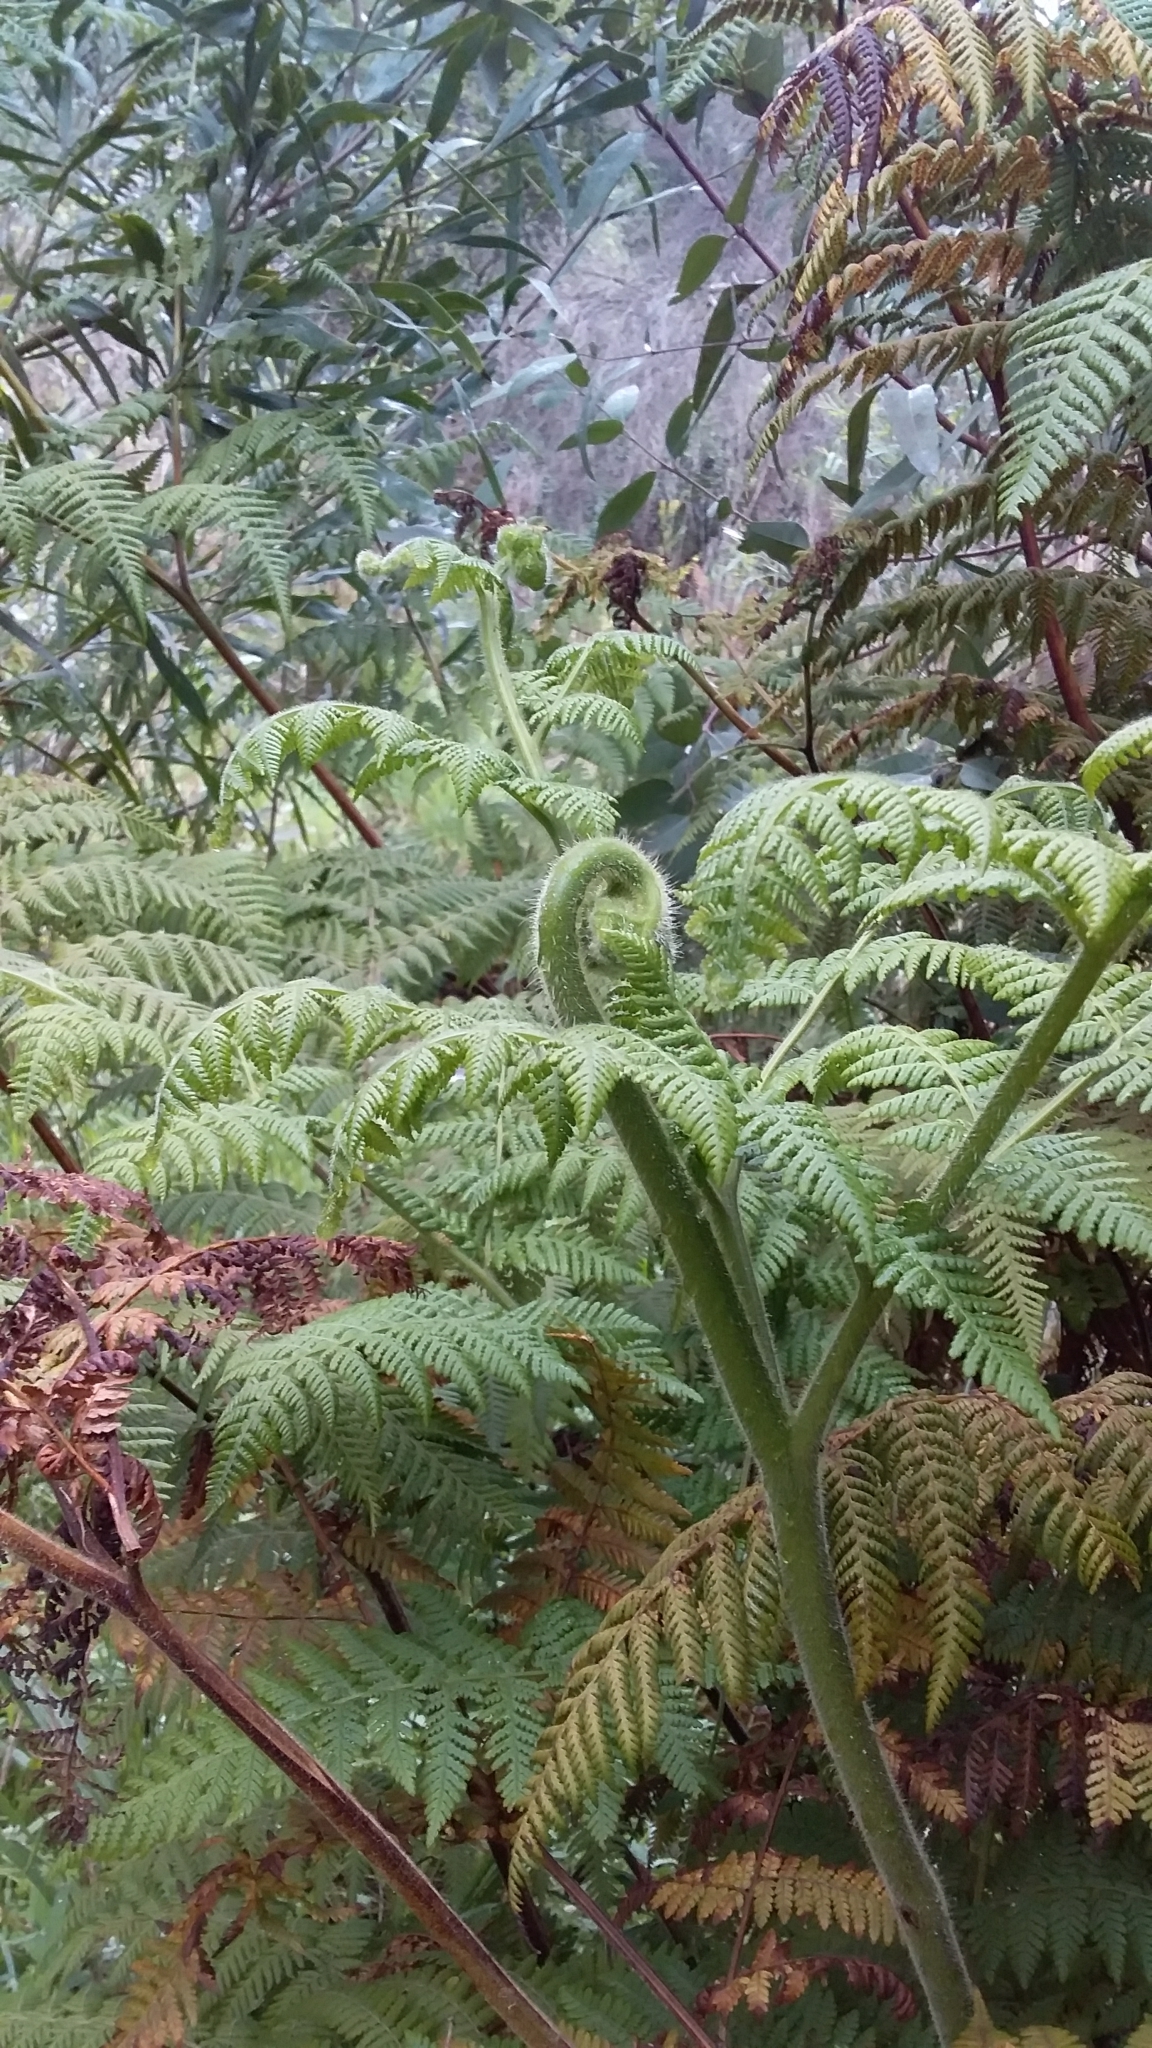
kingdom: Plantae
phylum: Tracheophyta
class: Polypodiopsida
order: Polypodiales
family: Dennstaedtiaceae
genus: Hypolepis
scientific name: Hypolepis dicksonioides
